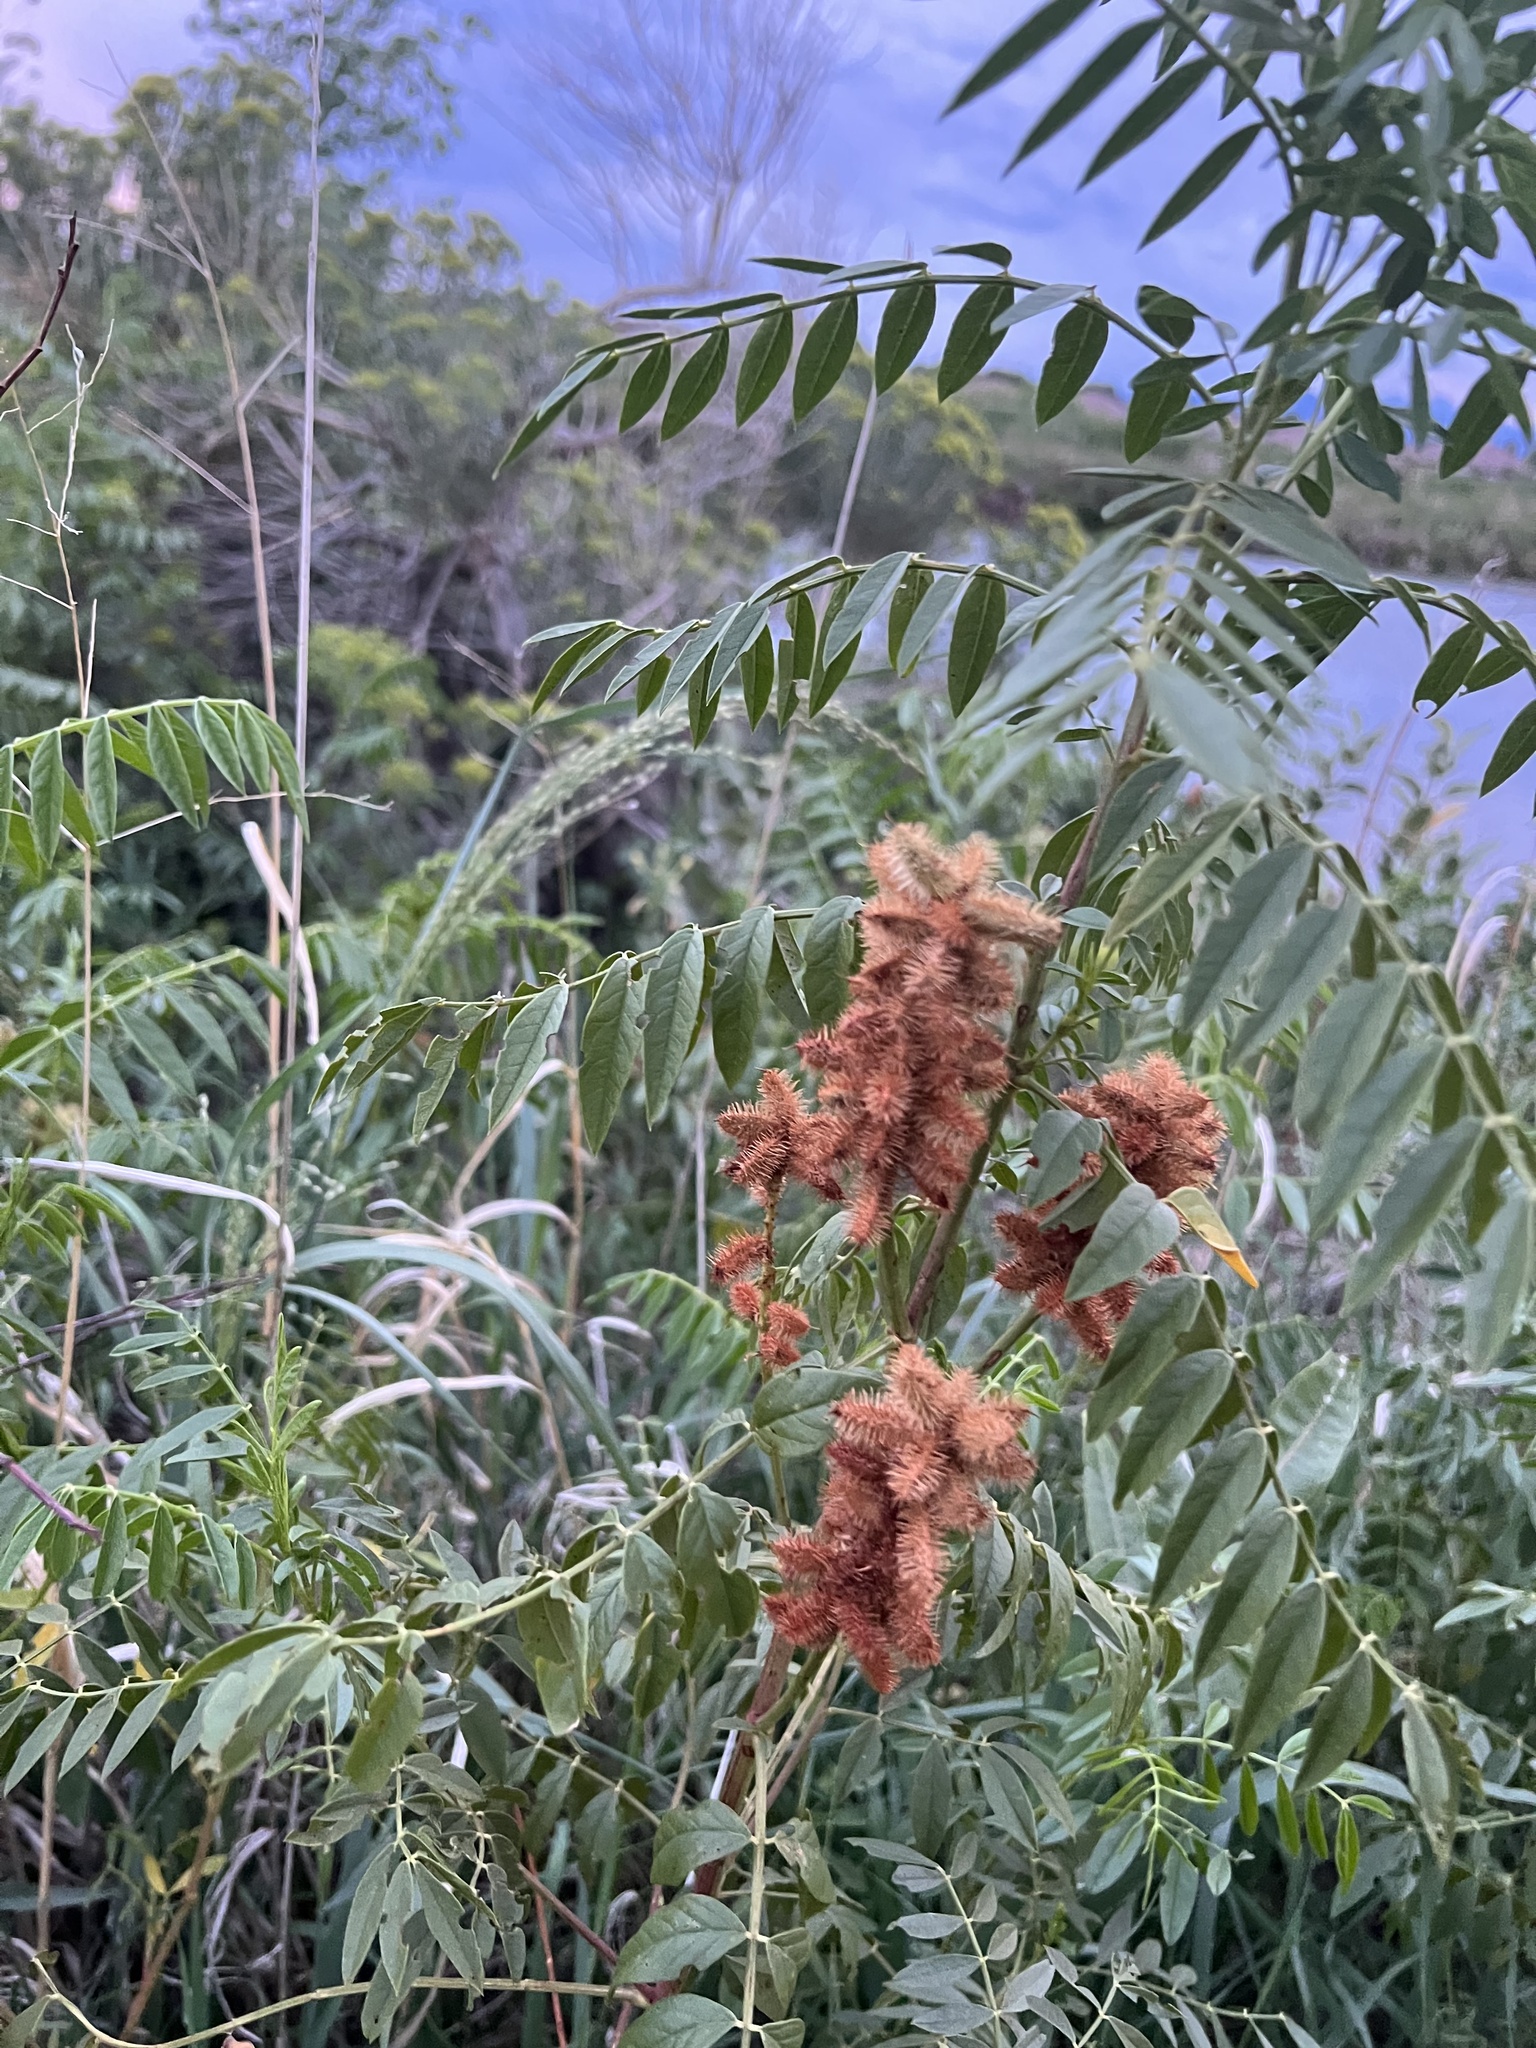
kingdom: Plantae
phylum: Tracheophyta
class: Magnoliopsida
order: Fabales
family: Fabaceae
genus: Glycyrrhiza
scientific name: Glycyrrhiza lepidota
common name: American liquorice
